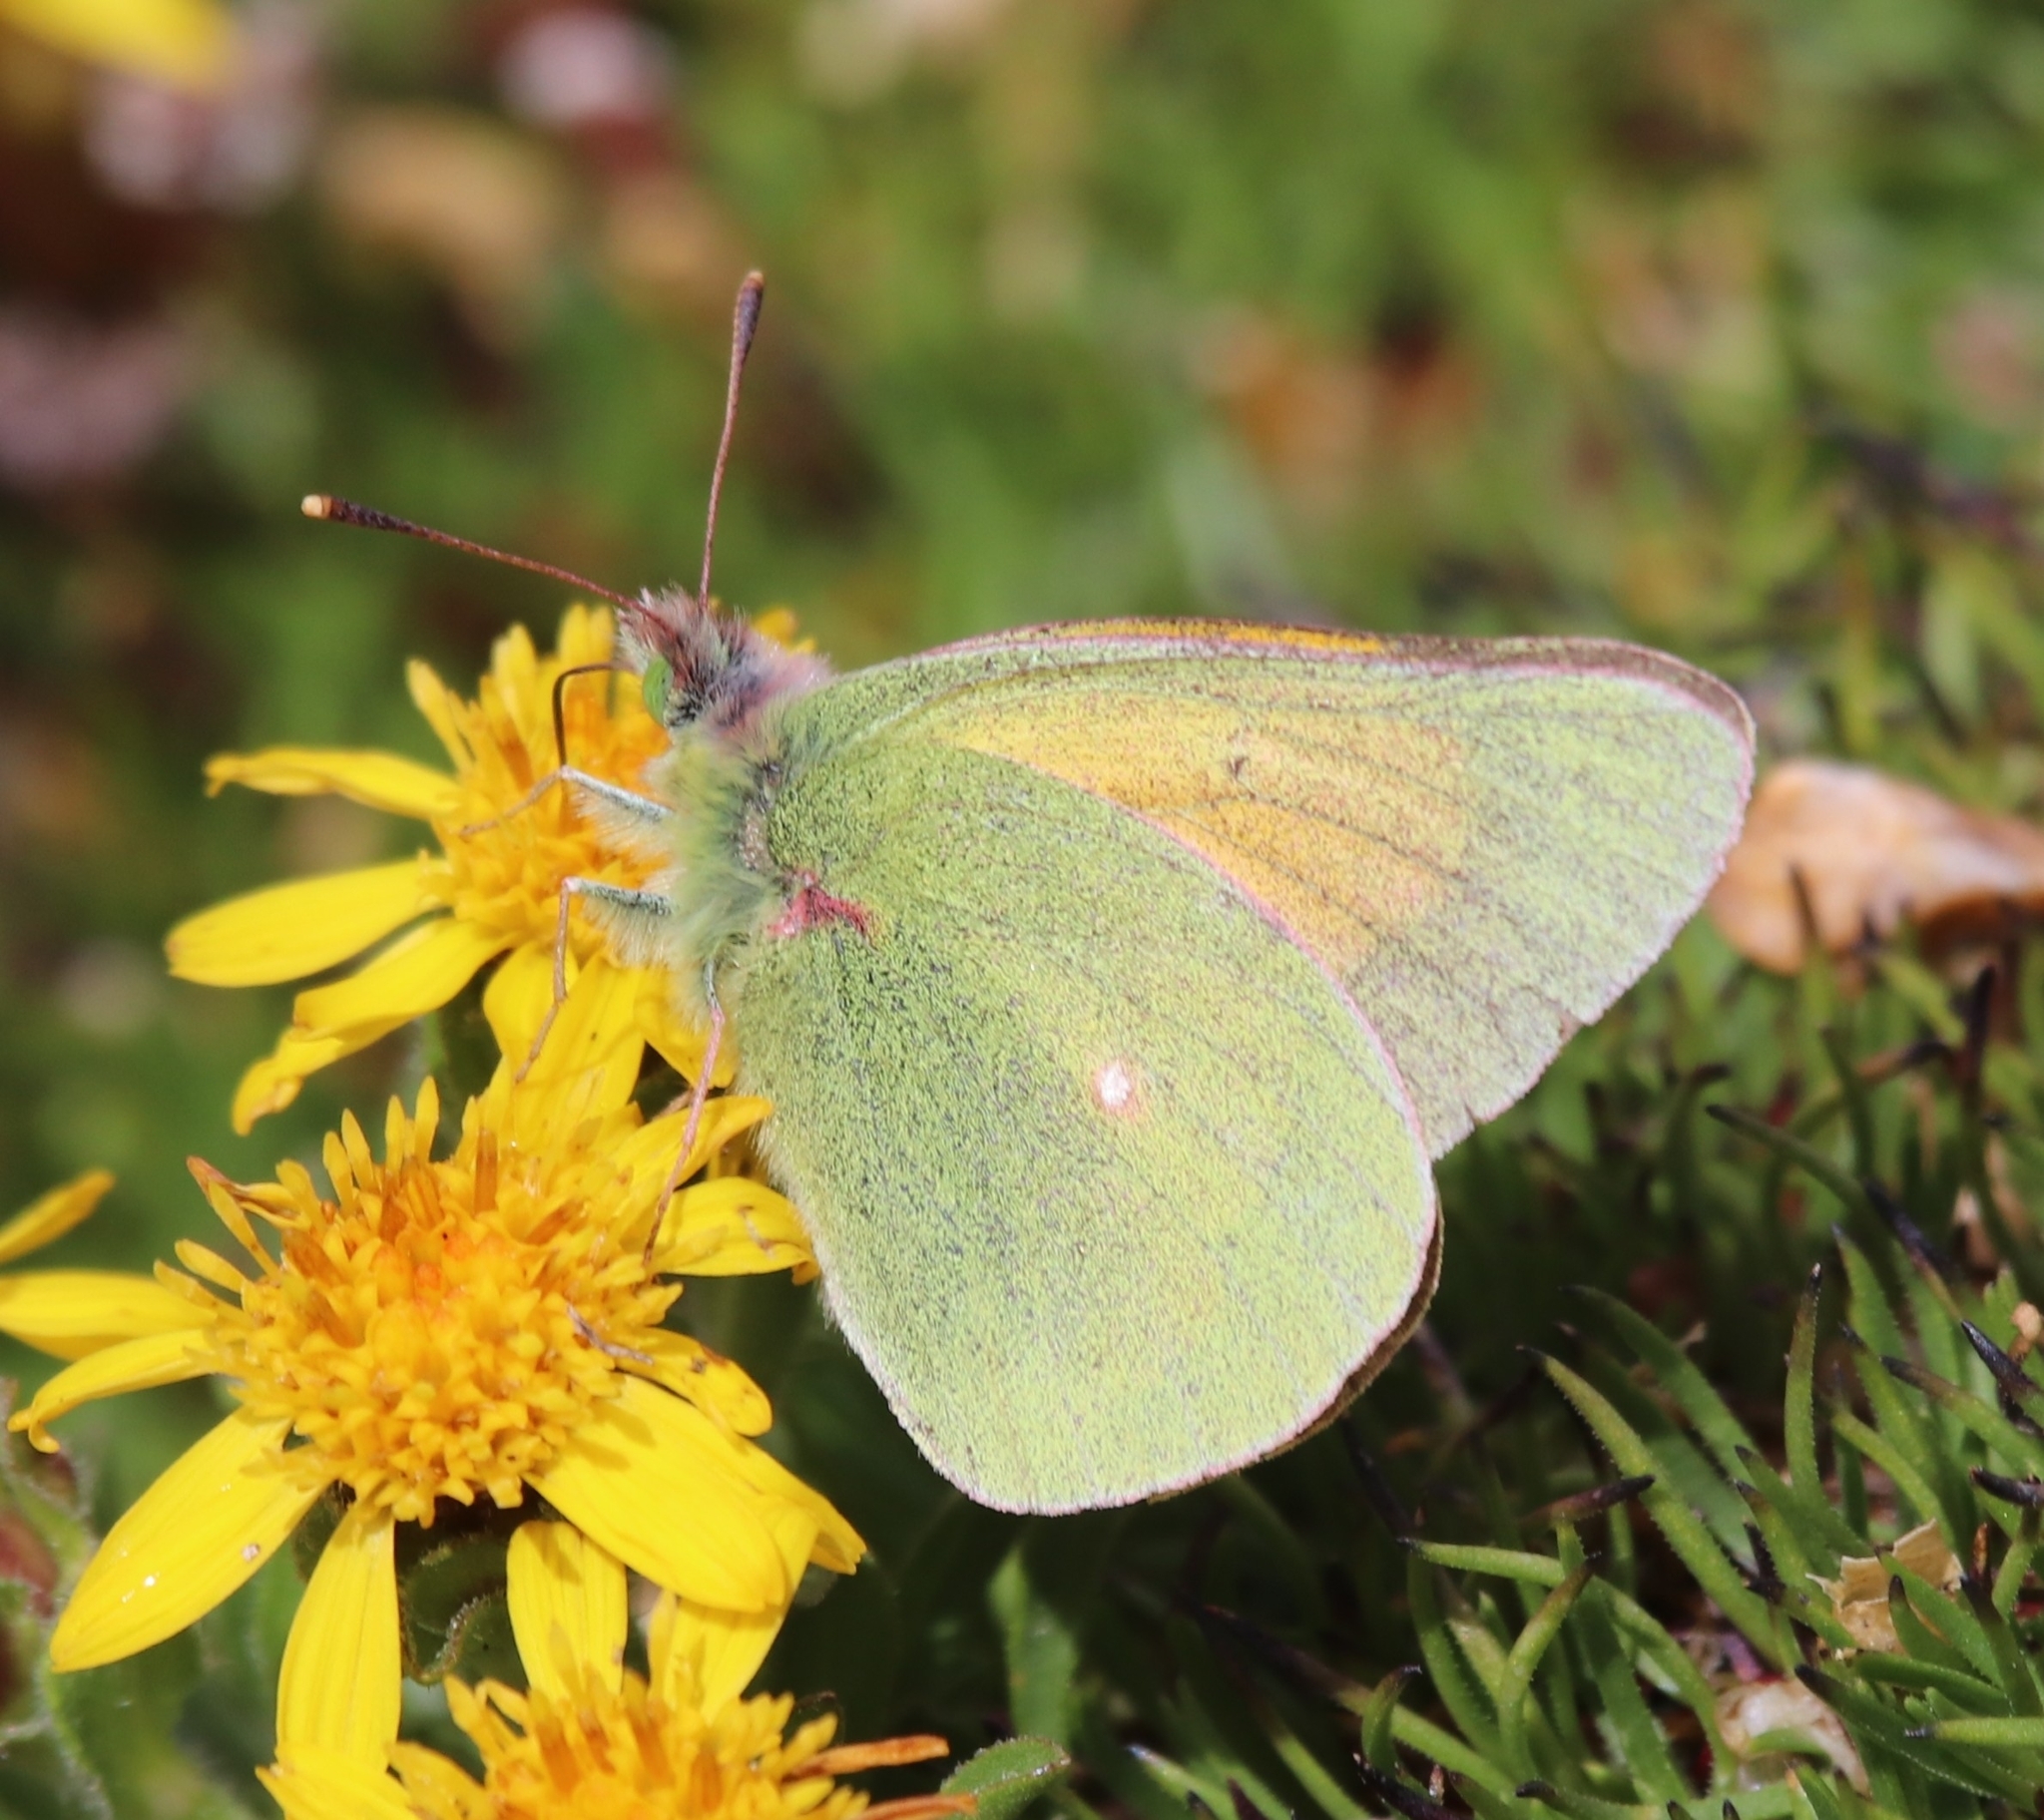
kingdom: Animalia
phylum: Arthropoda
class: Insecta
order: Lepidoptera
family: Pieridae
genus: Colias
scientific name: Colias meadii
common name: Mead's sulphur
